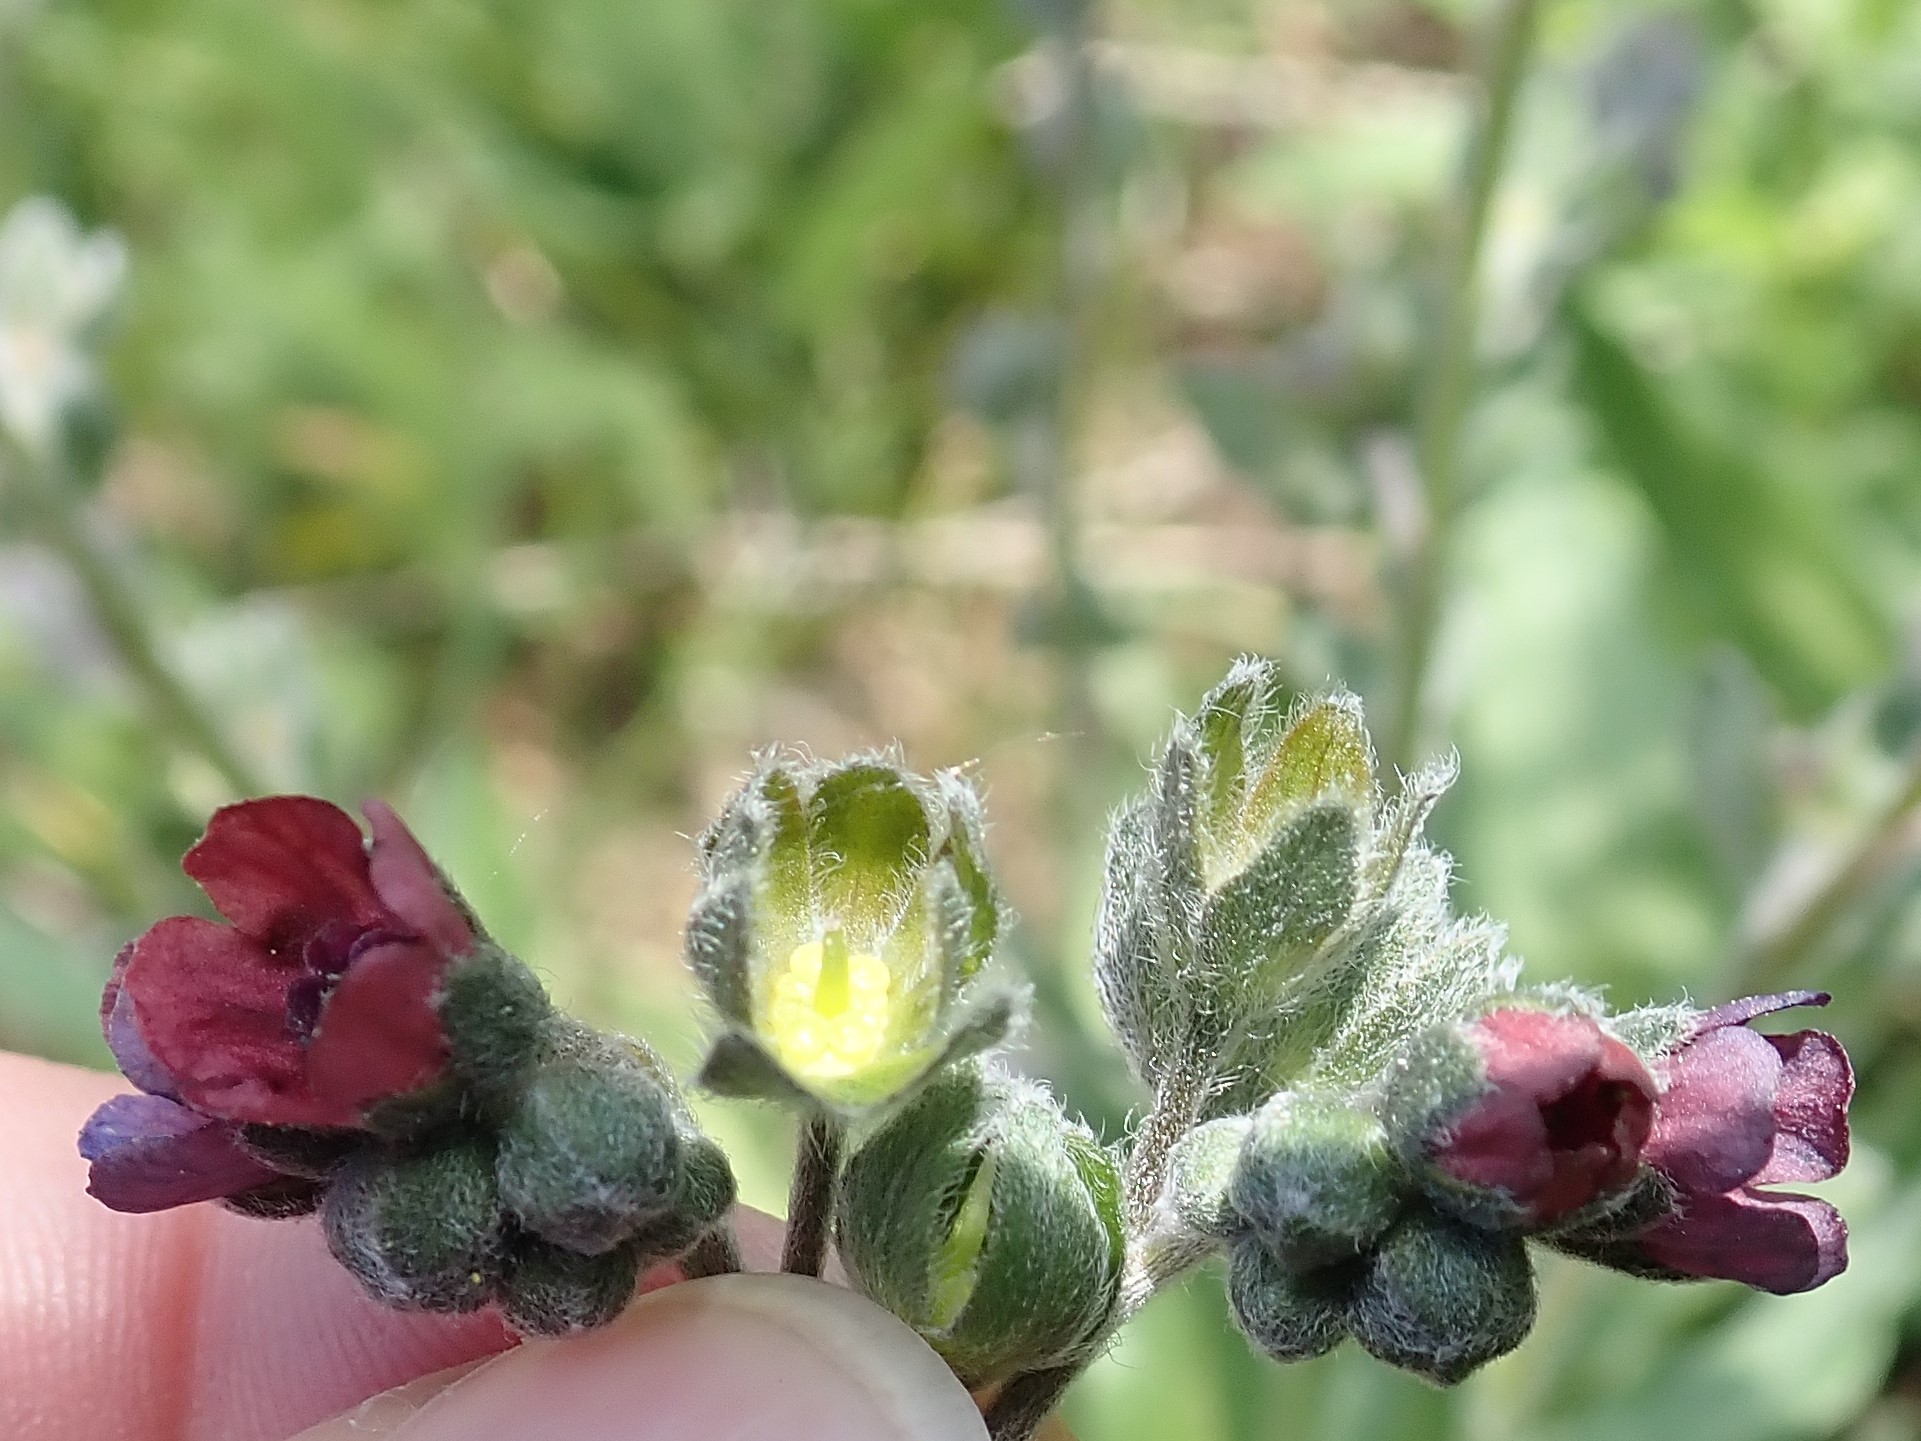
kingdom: Plantae
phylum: Tracheophyta
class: Magnoliopsida
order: Boraginales
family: Boraginaceae
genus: Cynoglossum
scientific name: Cynoglossum officinale
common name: Hound's-tongue
